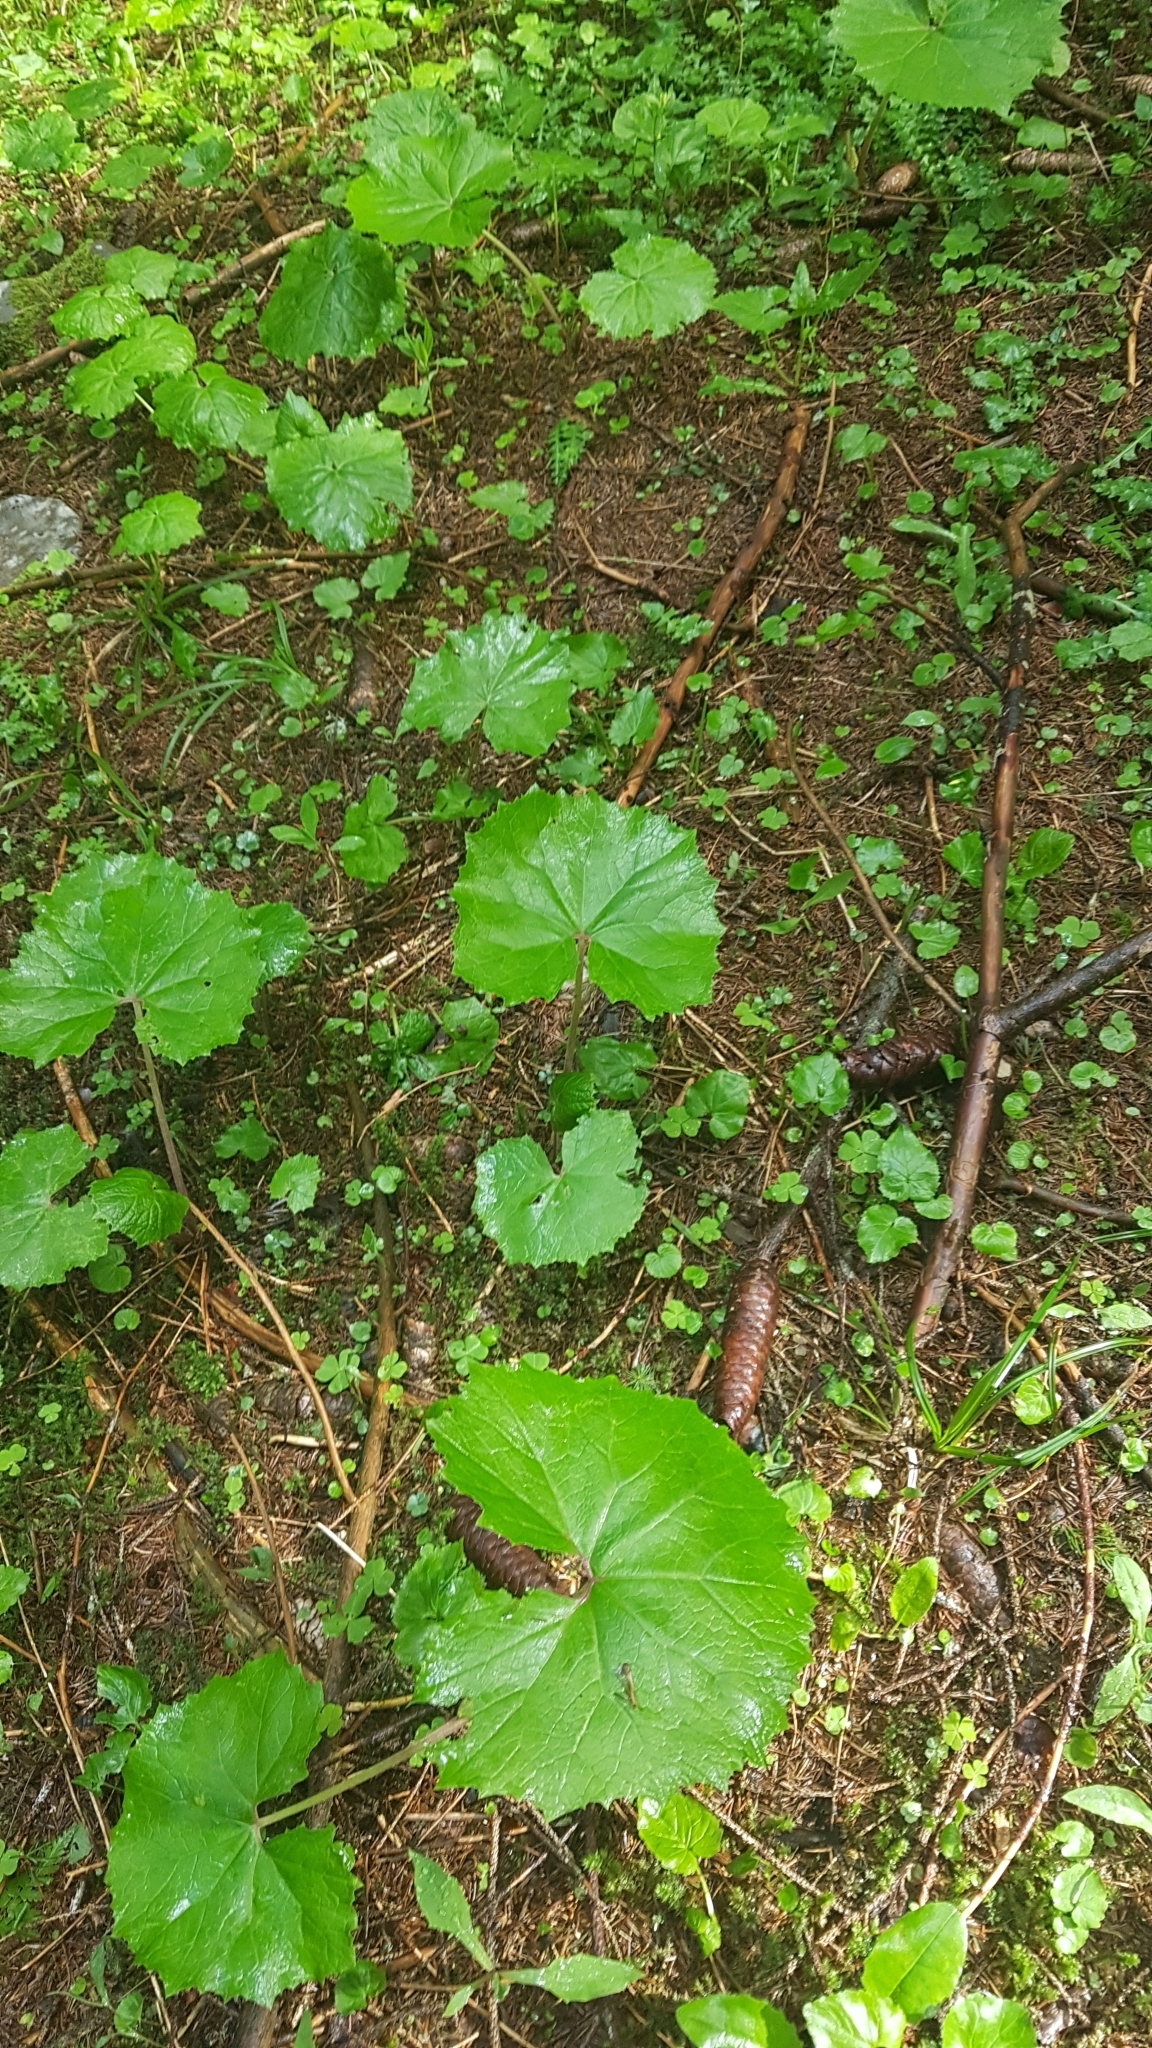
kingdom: Plantae
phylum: Tracheophyta
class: Magnoliopsida
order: Asterales
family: Asteraceae
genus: Petasites
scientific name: Petasites albus
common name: White butterbur
